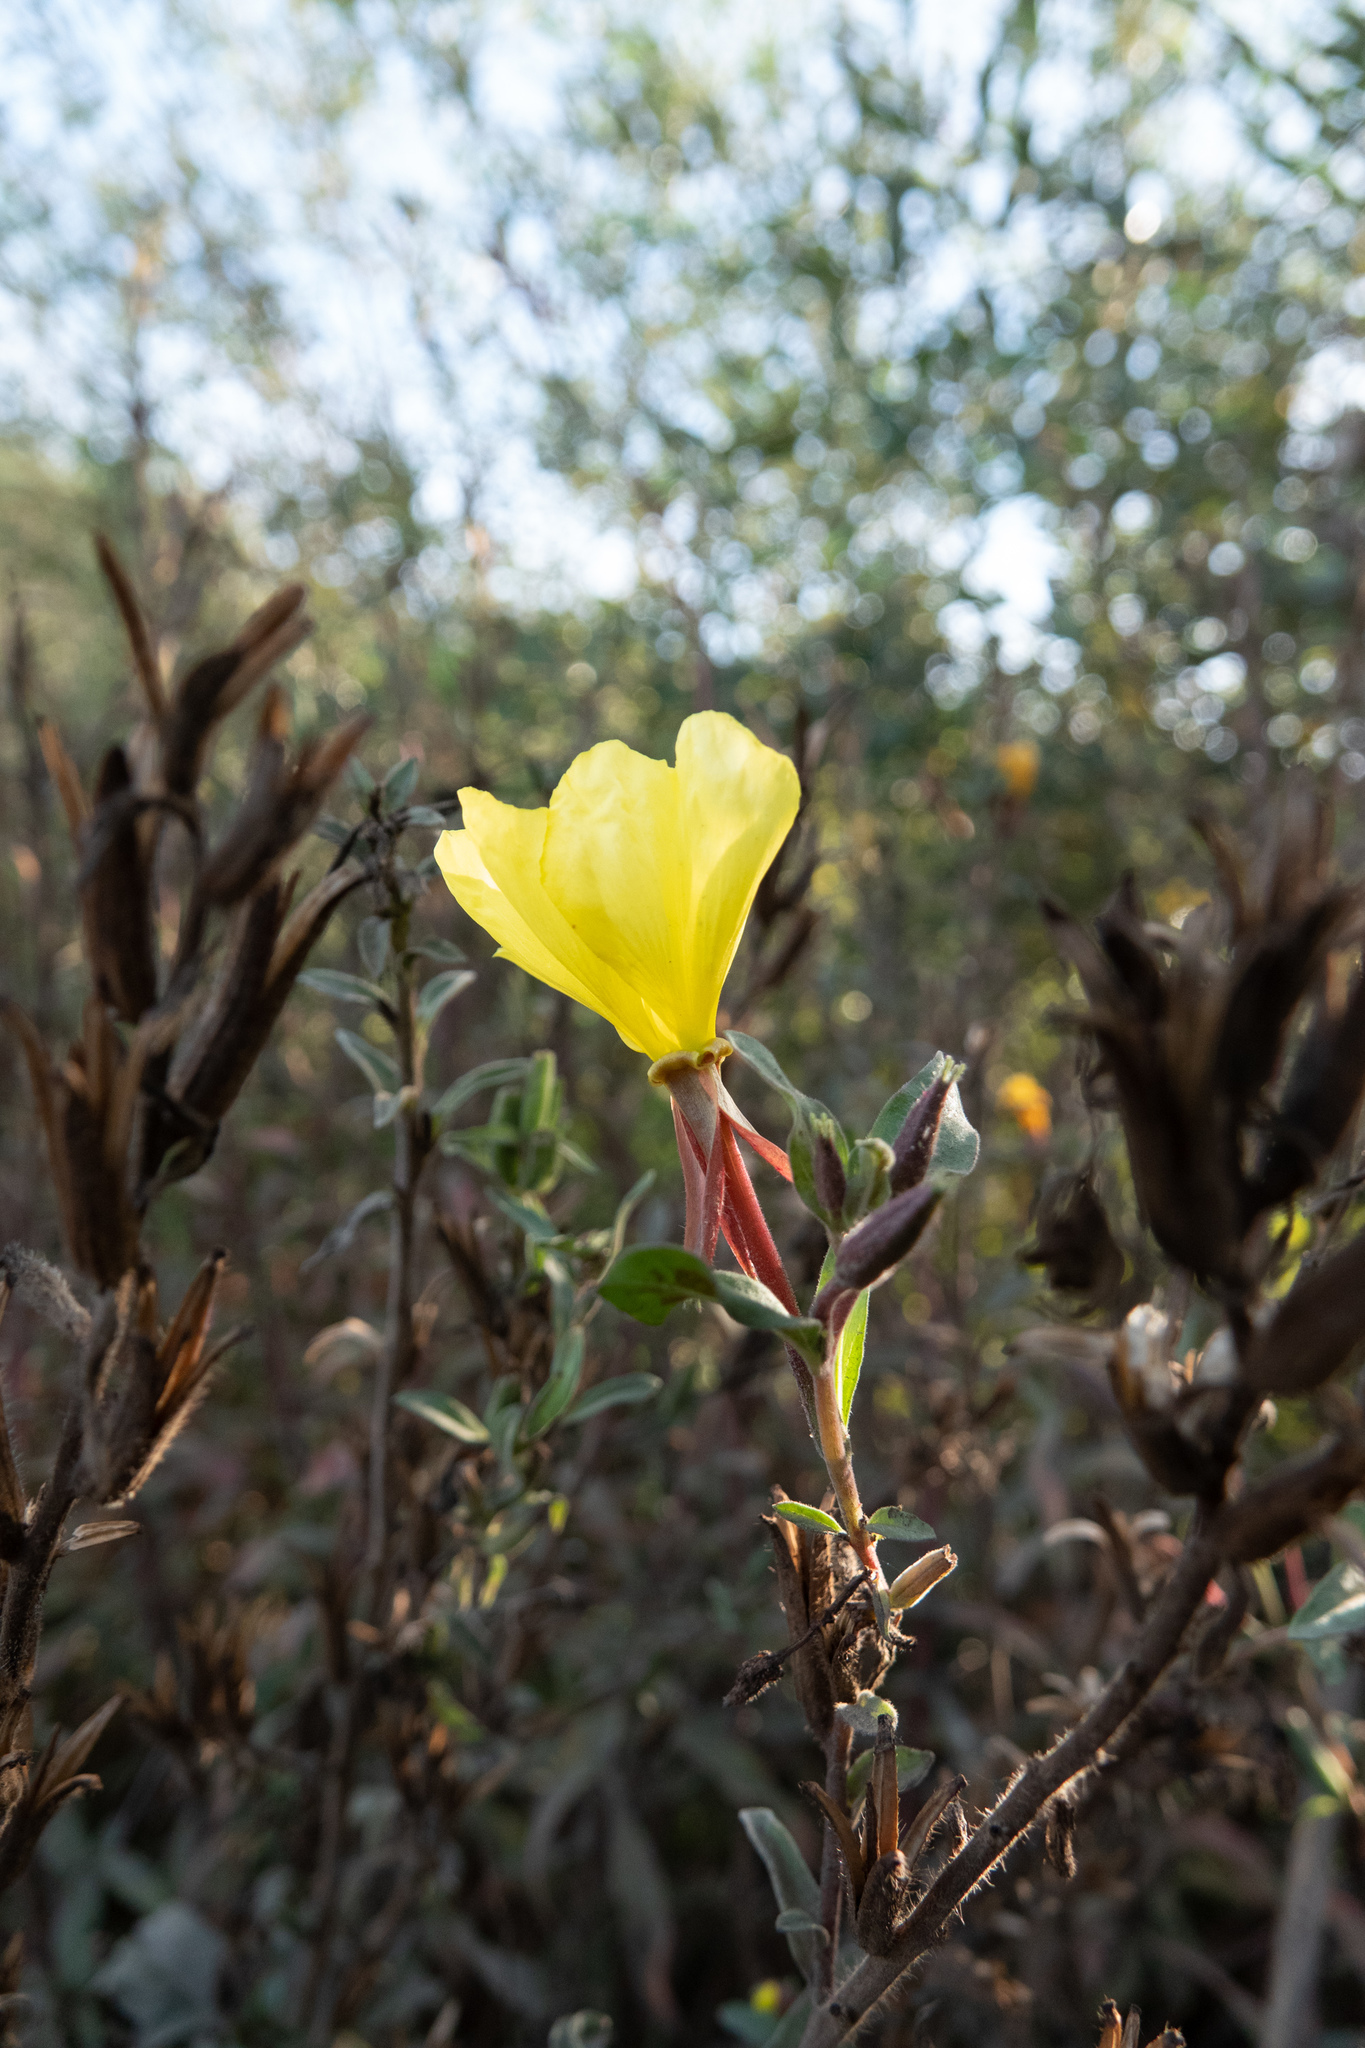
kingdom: Plantae
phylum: Tracheophyta
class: Magnoliopsida
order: Myrtales
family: Onagraceae
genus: Oenothera
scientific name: Oenothera elata
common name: Hooker's evening-primrose
